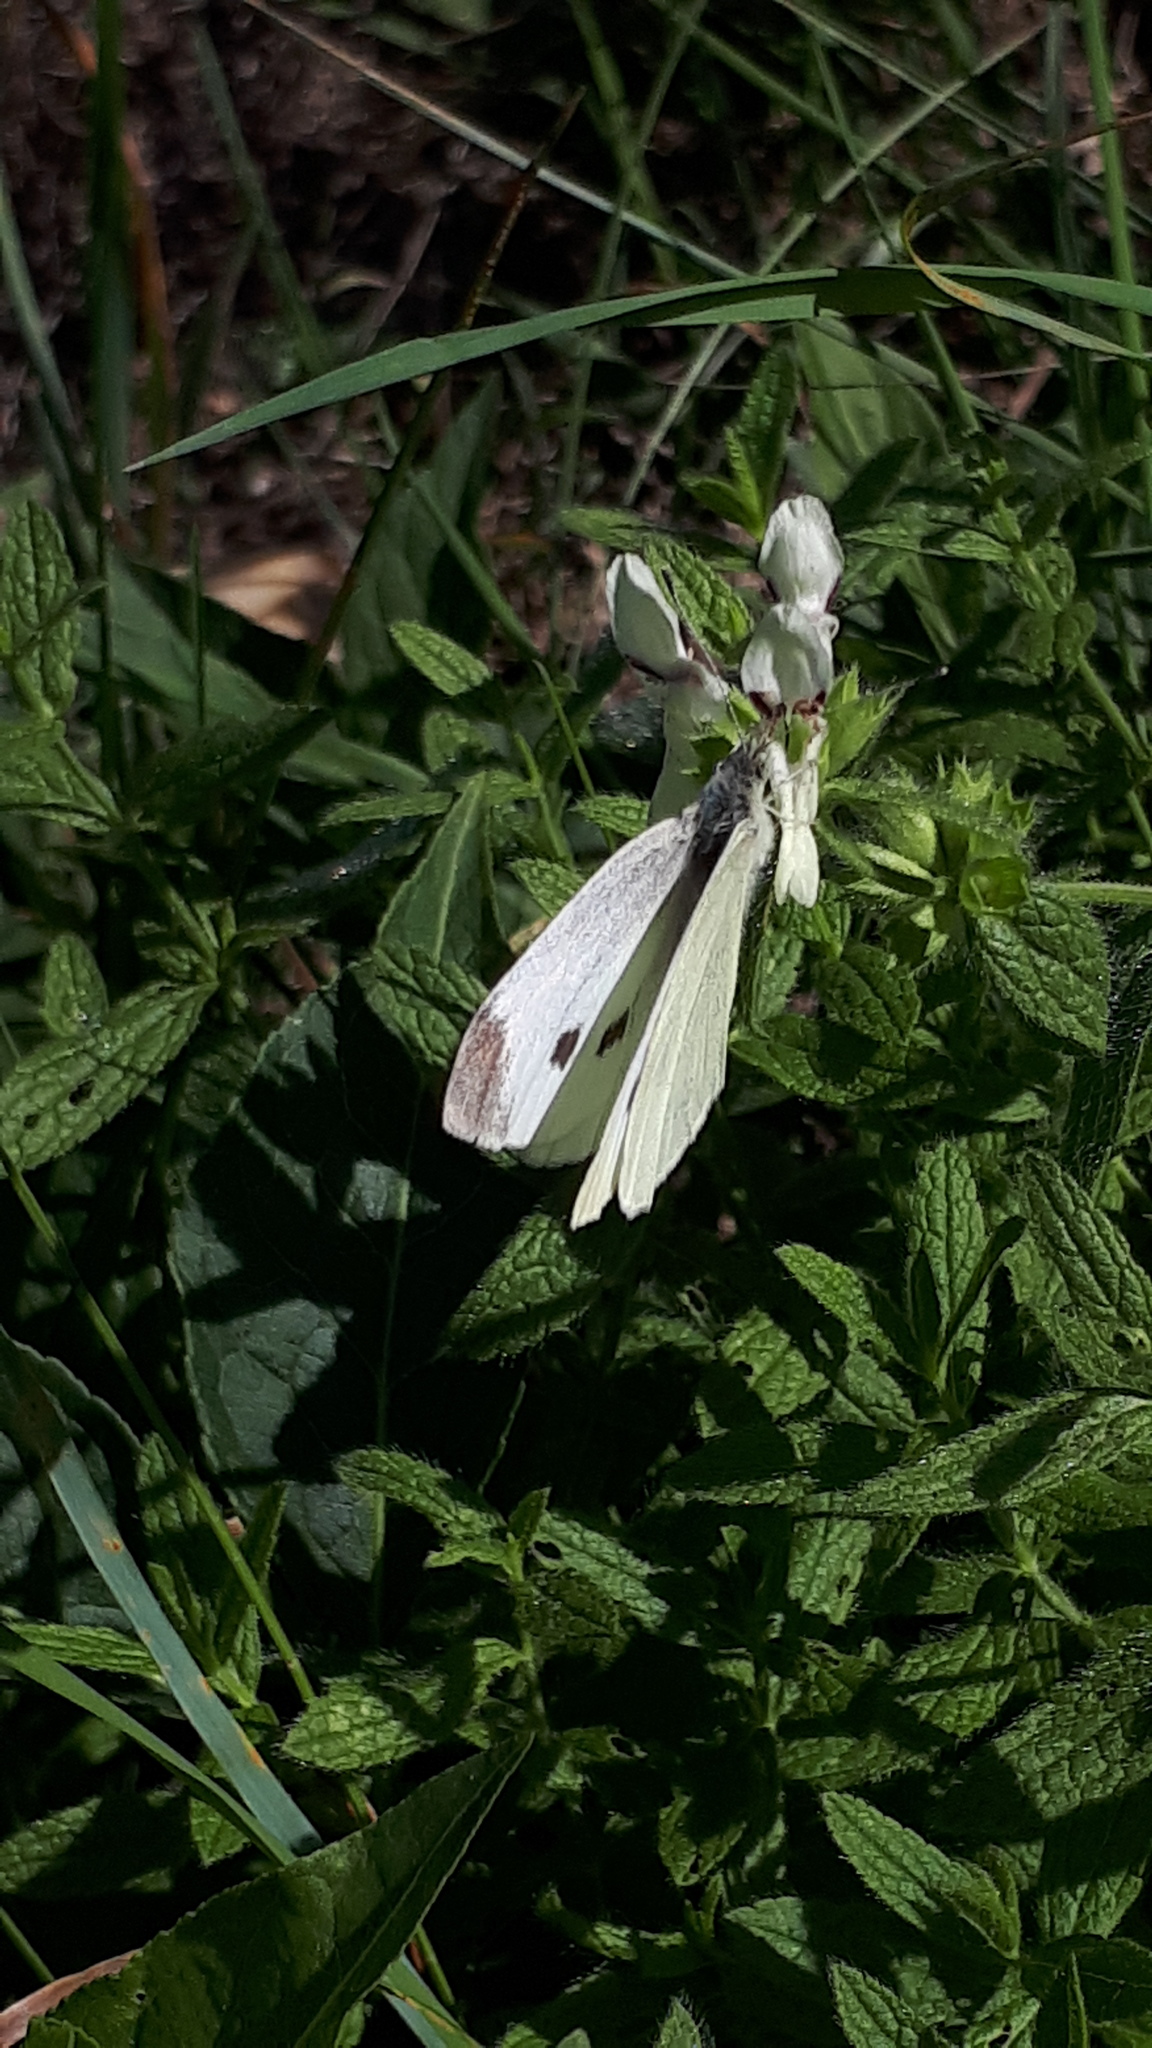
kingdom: Animalia
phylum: Arthropoda
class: Insecta
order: Lepidoptera
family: Pieridae
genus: Pieris
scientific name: Pieris rapae
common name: Small white
